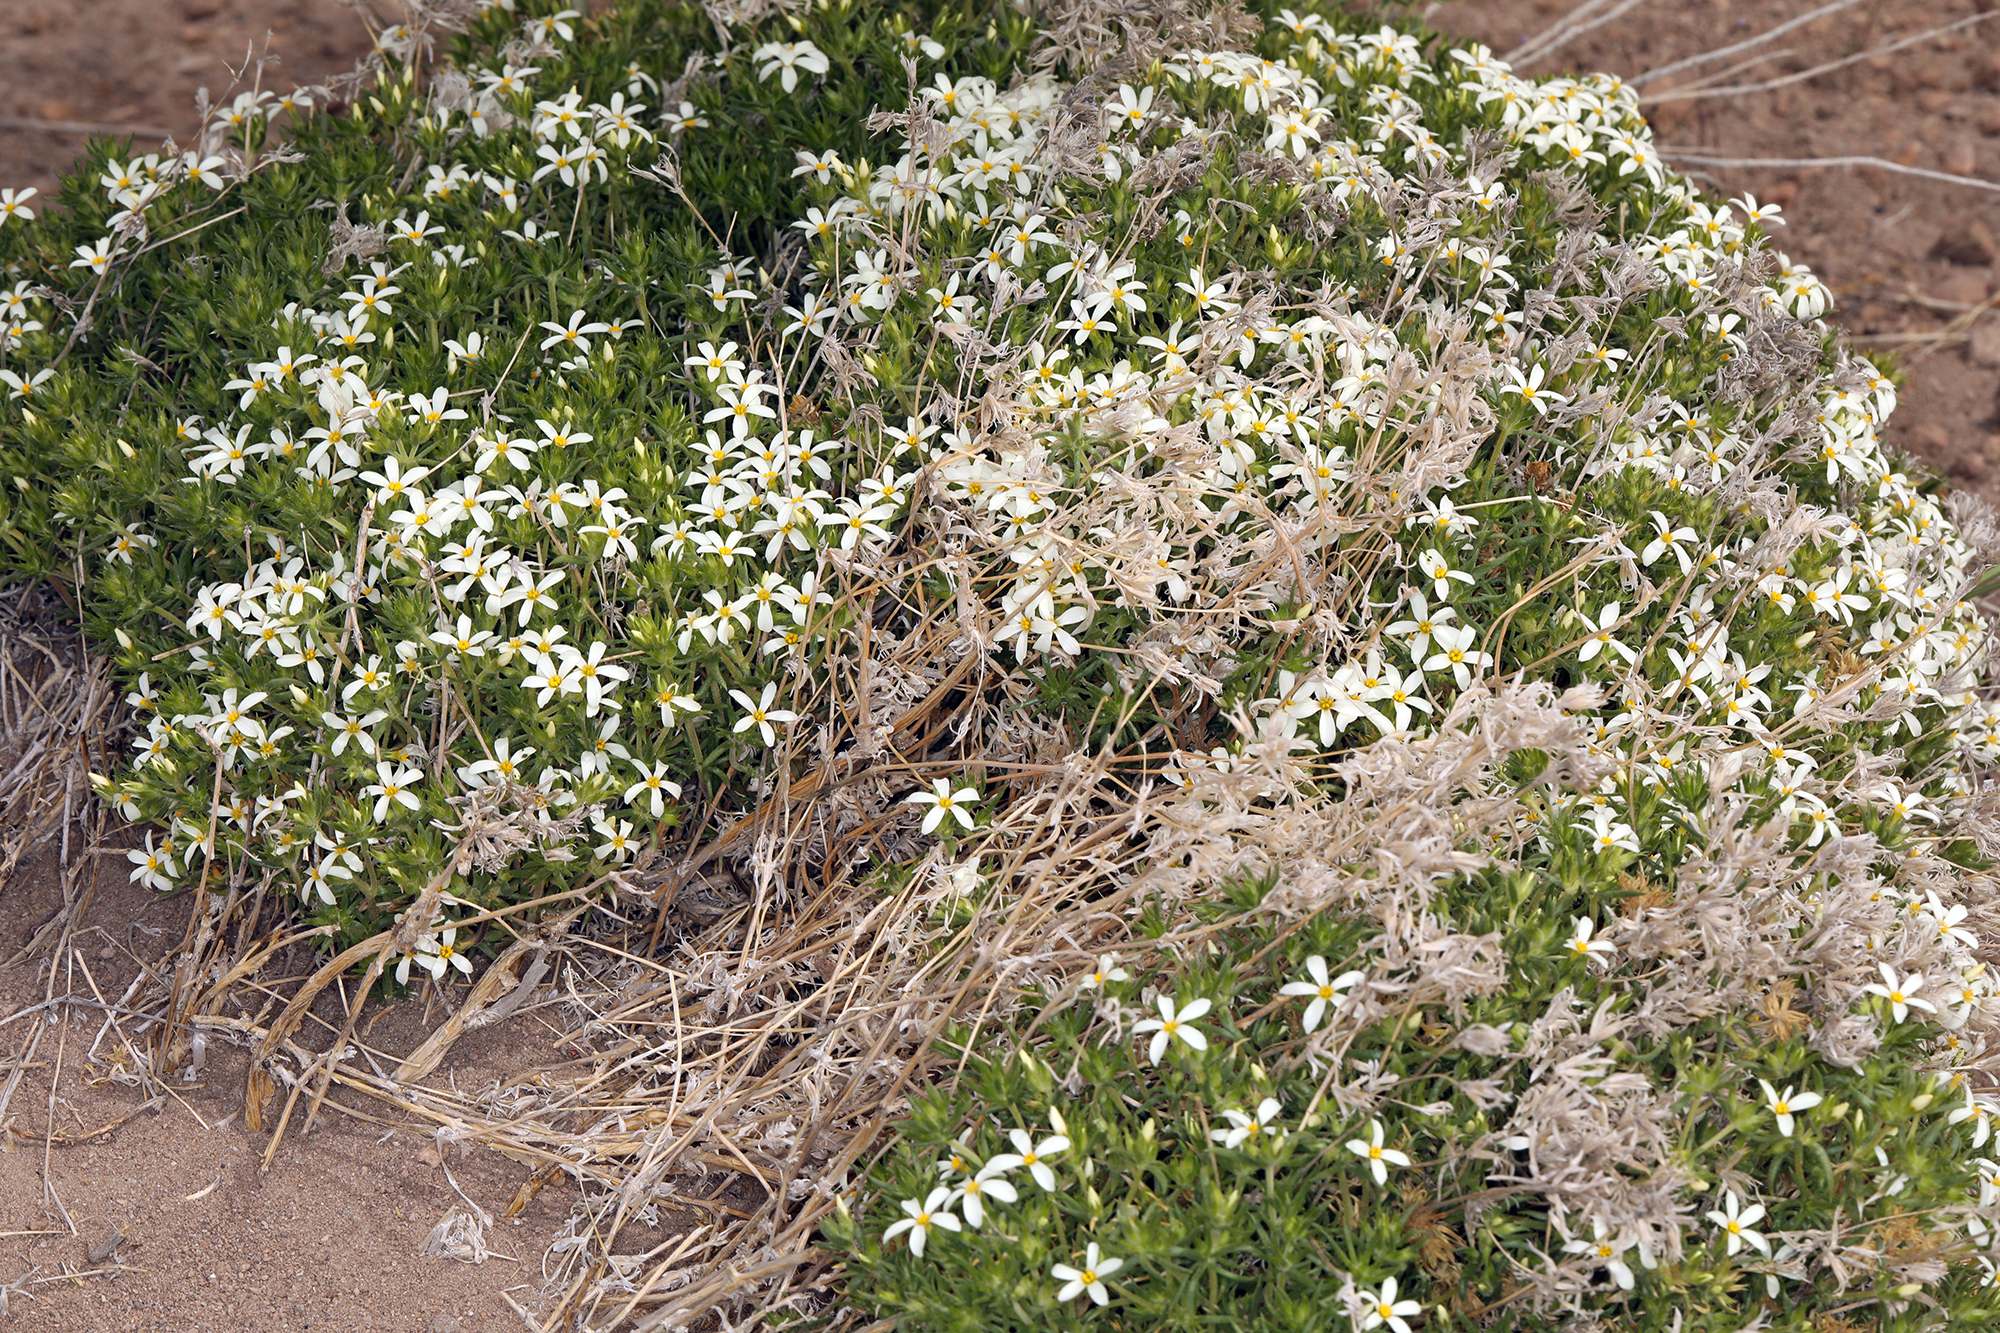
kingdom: Plantae
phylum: Tracheophyta
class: Magnoliopsida
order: Ericales
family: Polemoniaceae
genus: Leptosiphon
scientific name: Leptosiphon nuttallii
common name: Nuttall's linanthus
